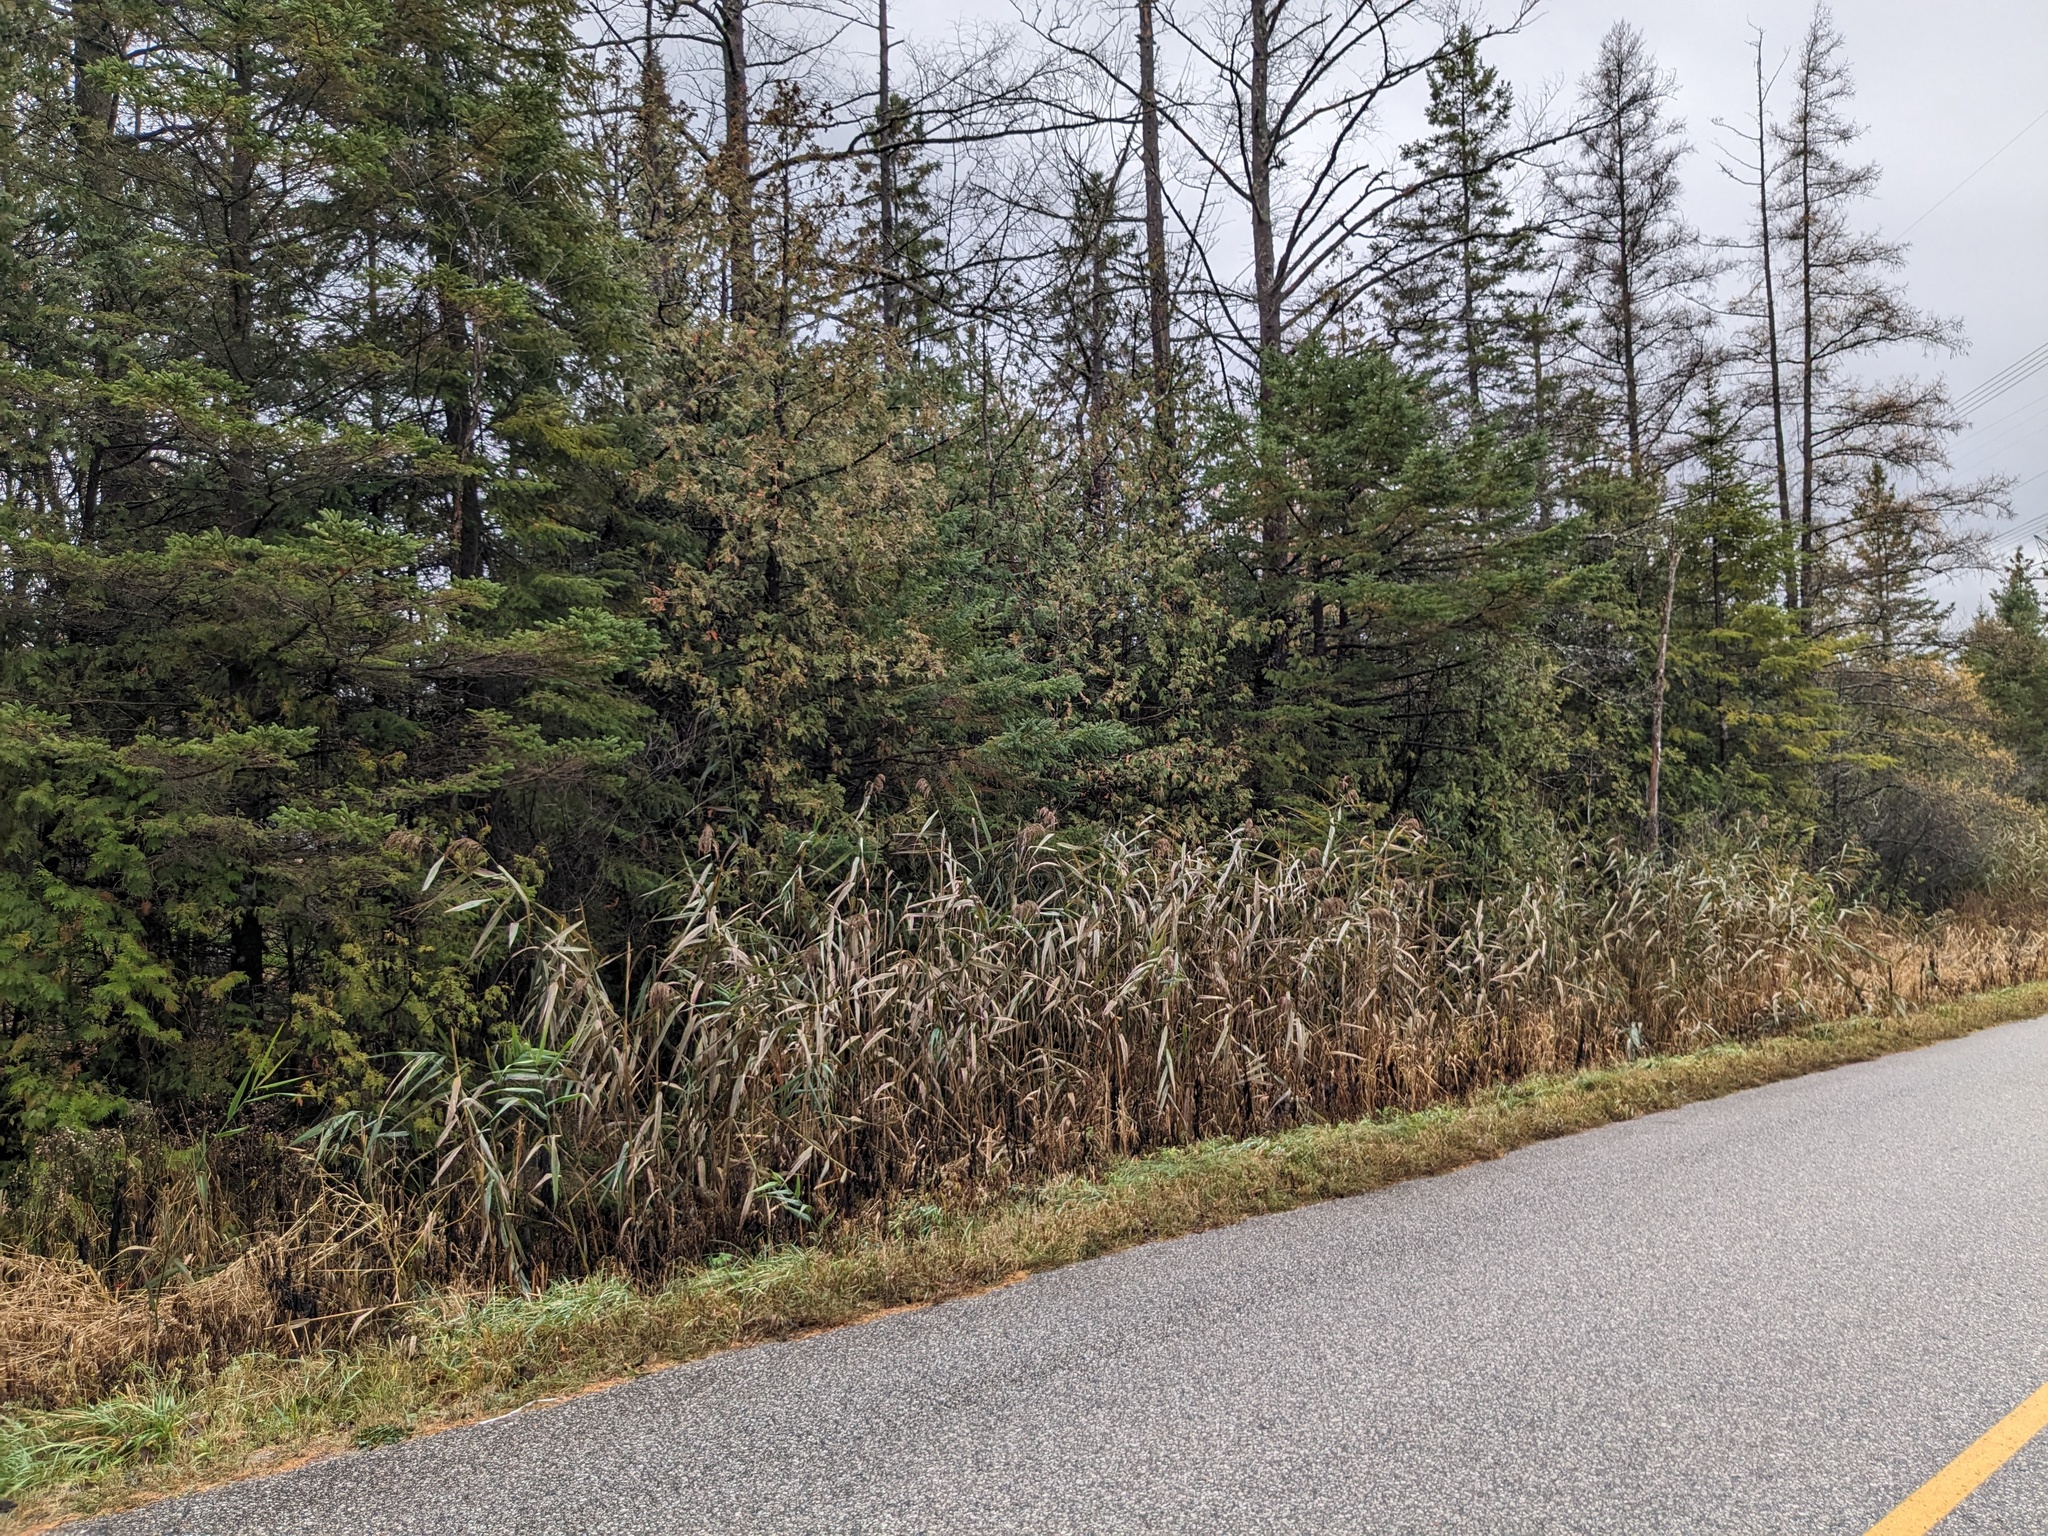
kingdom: Plantae
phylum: Tracheophyta
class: Liliopsida
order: Poales
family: Poaceae
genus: Phragmites
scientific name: Phragmites australis
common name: Common reed
